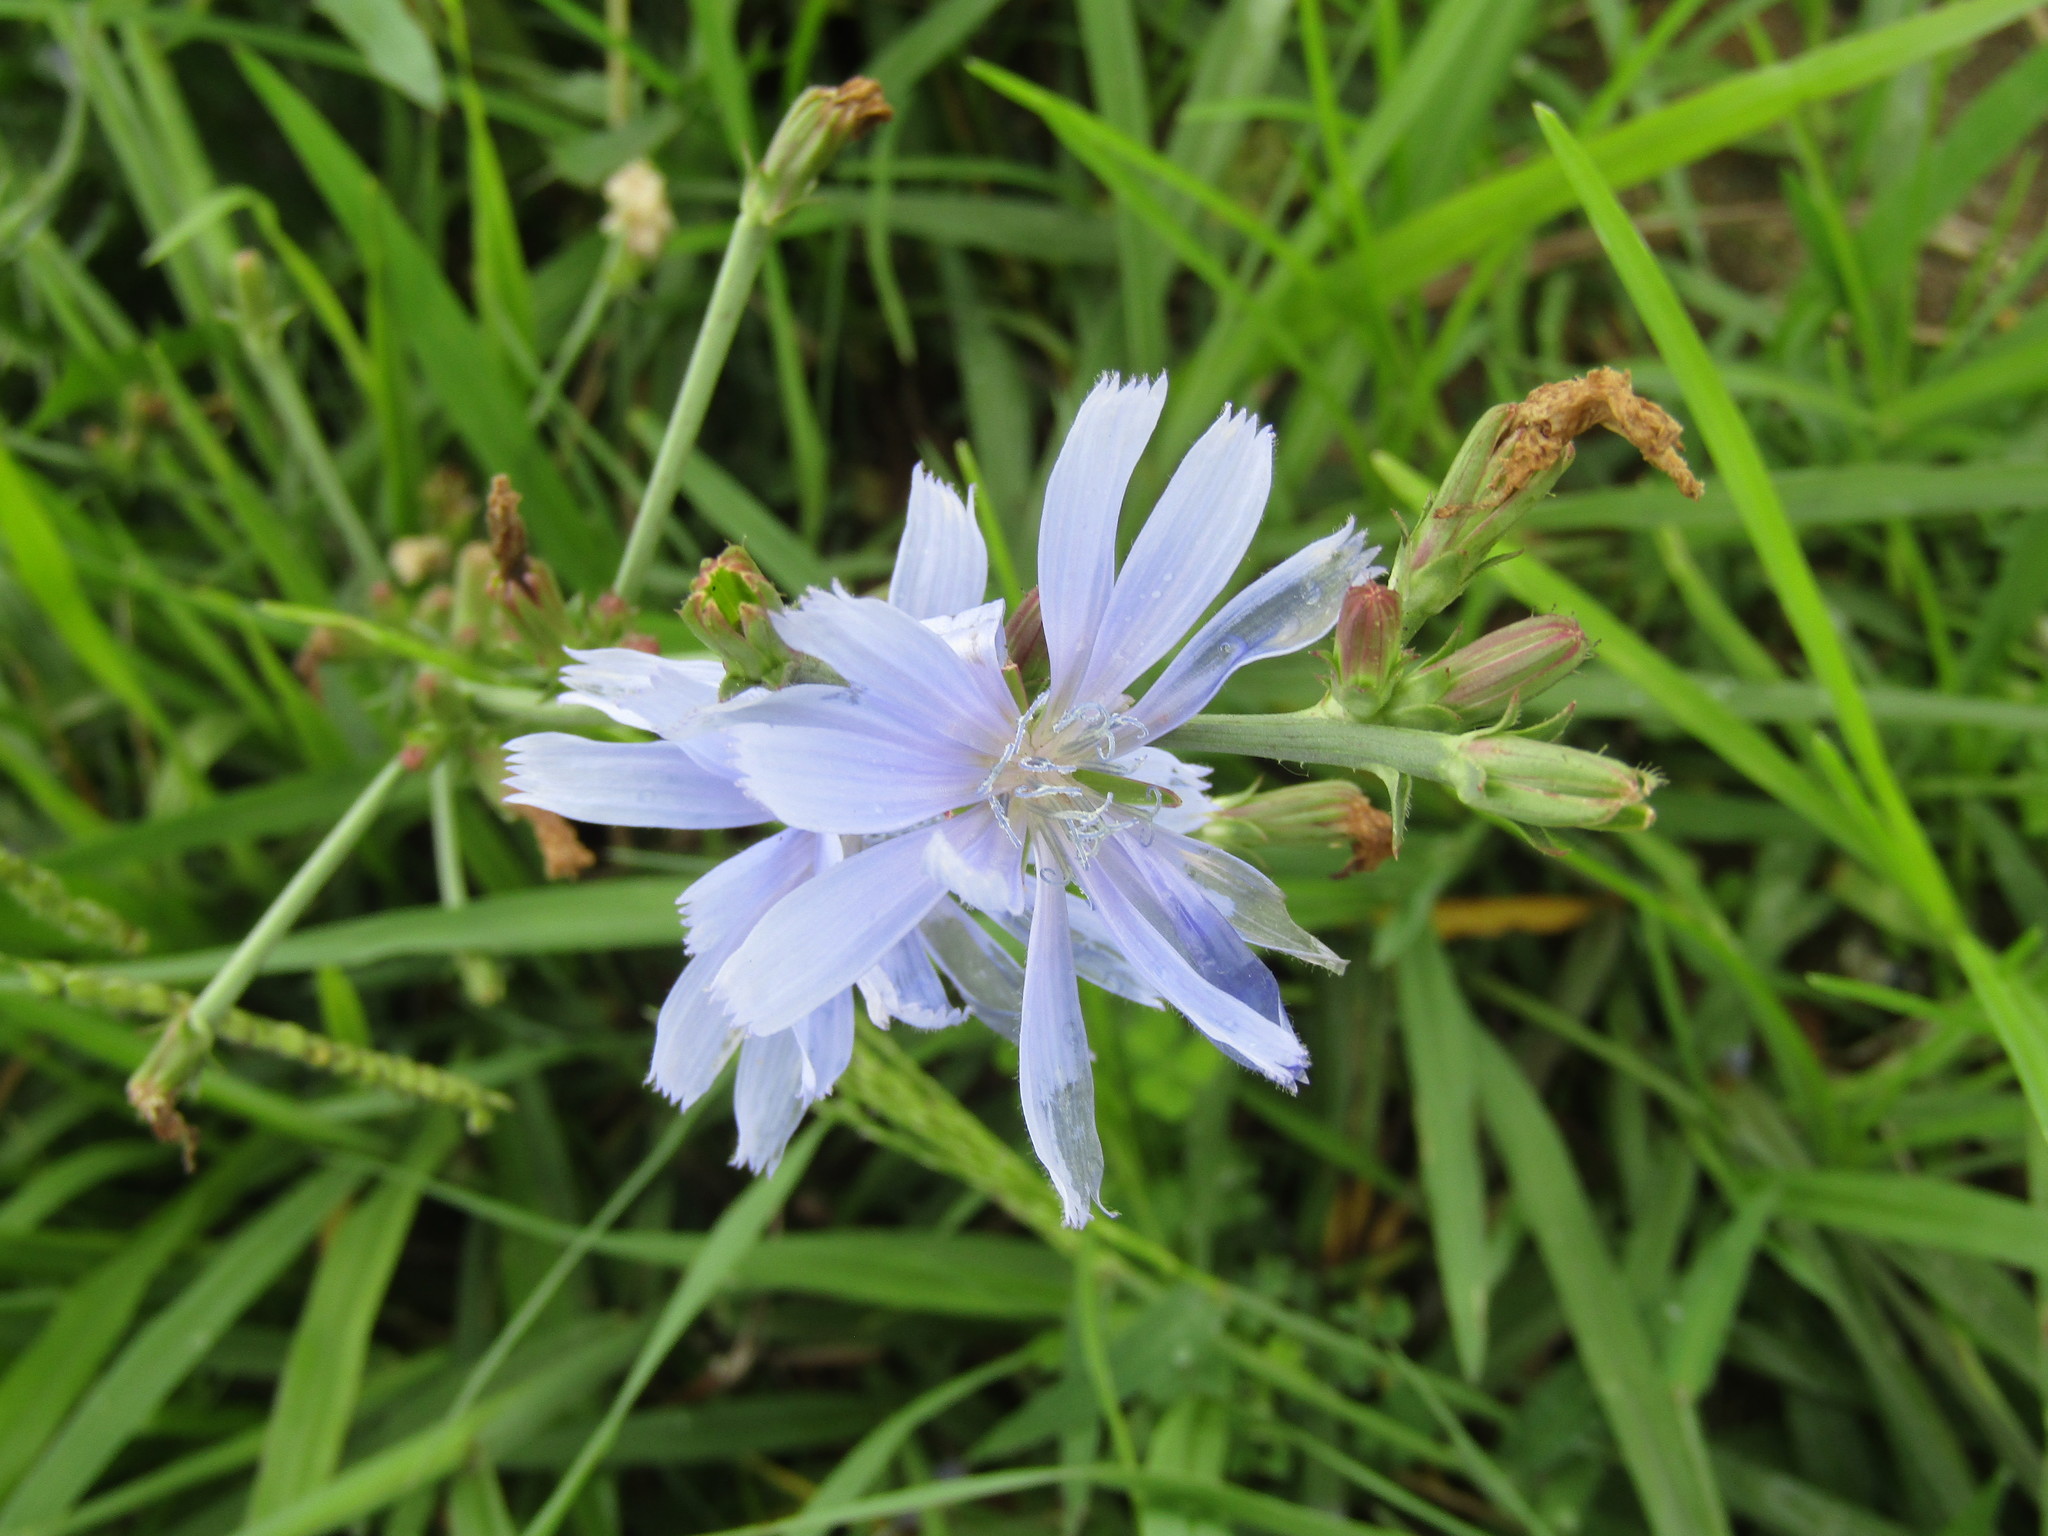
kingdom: Plantae
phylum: Tracheophyta
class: Magnoliopsida
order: Asterales
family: Asteraceae
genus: Cichorium
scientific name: Cichorium intybus
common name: Chicory
